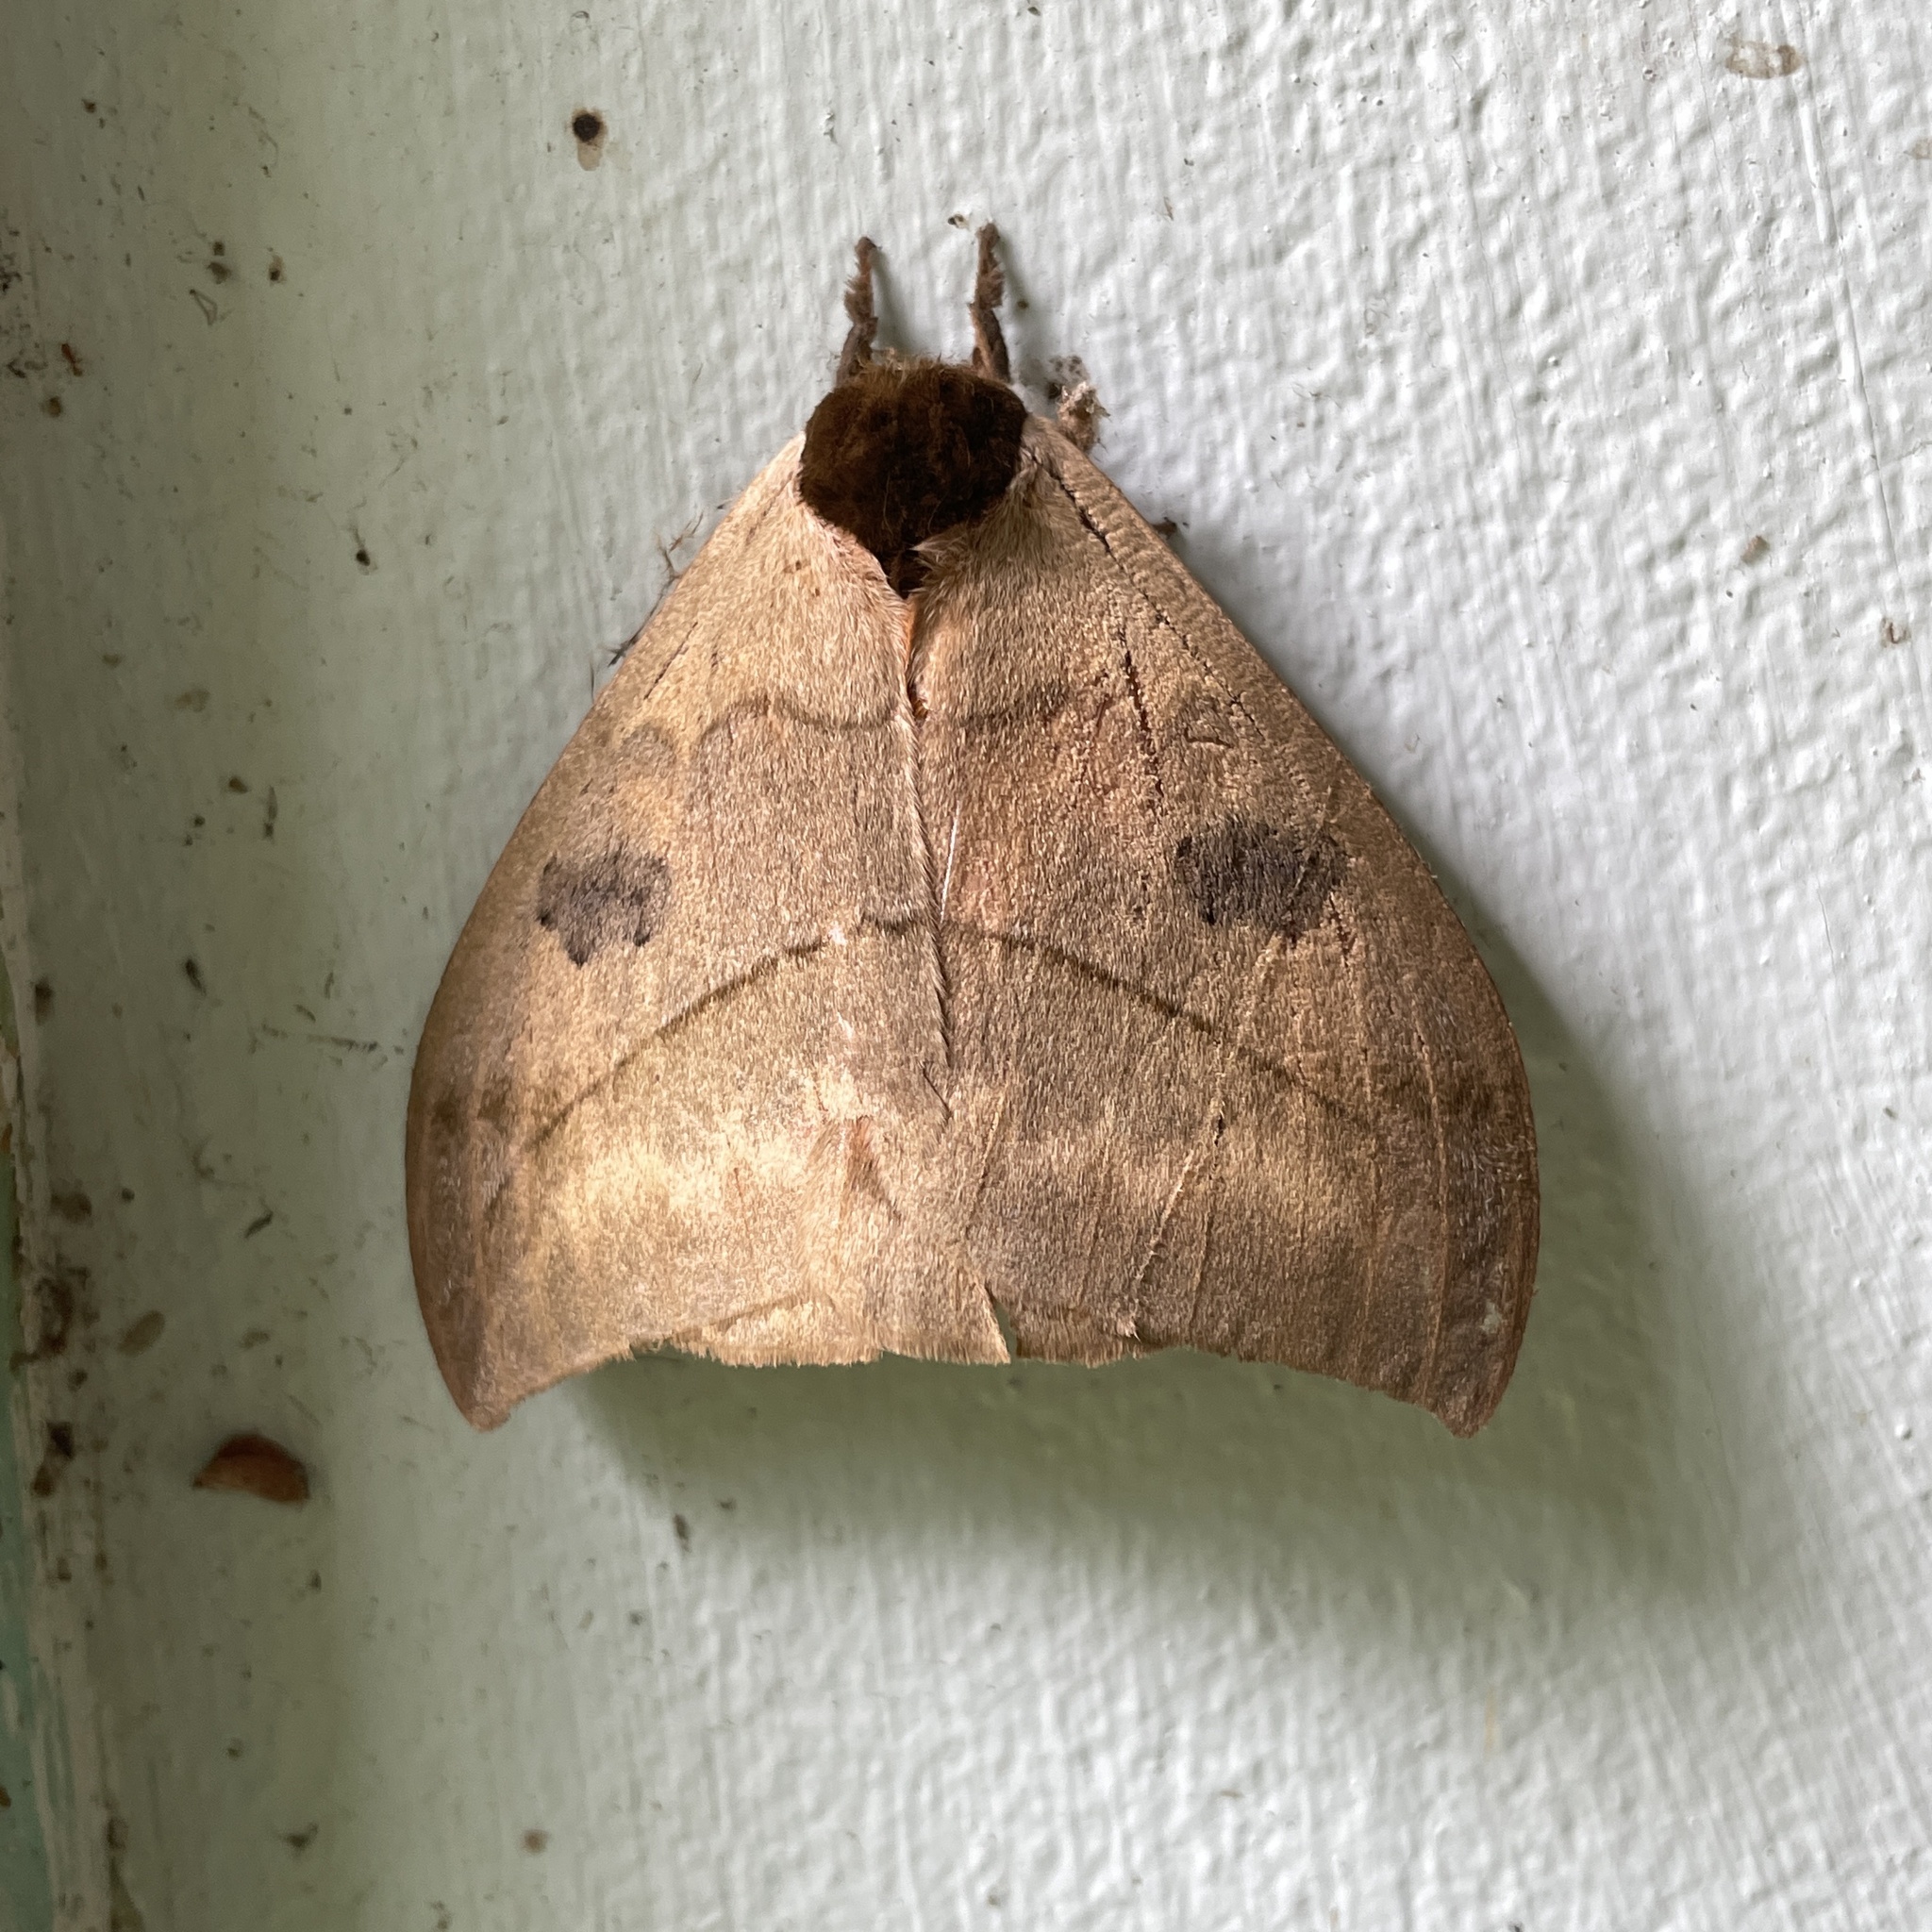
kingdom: Animalia
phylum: Arthropoda
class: Insecta
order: Lepidoptera
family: Saturniidae
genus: Automeris
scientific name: Automeris liberia
